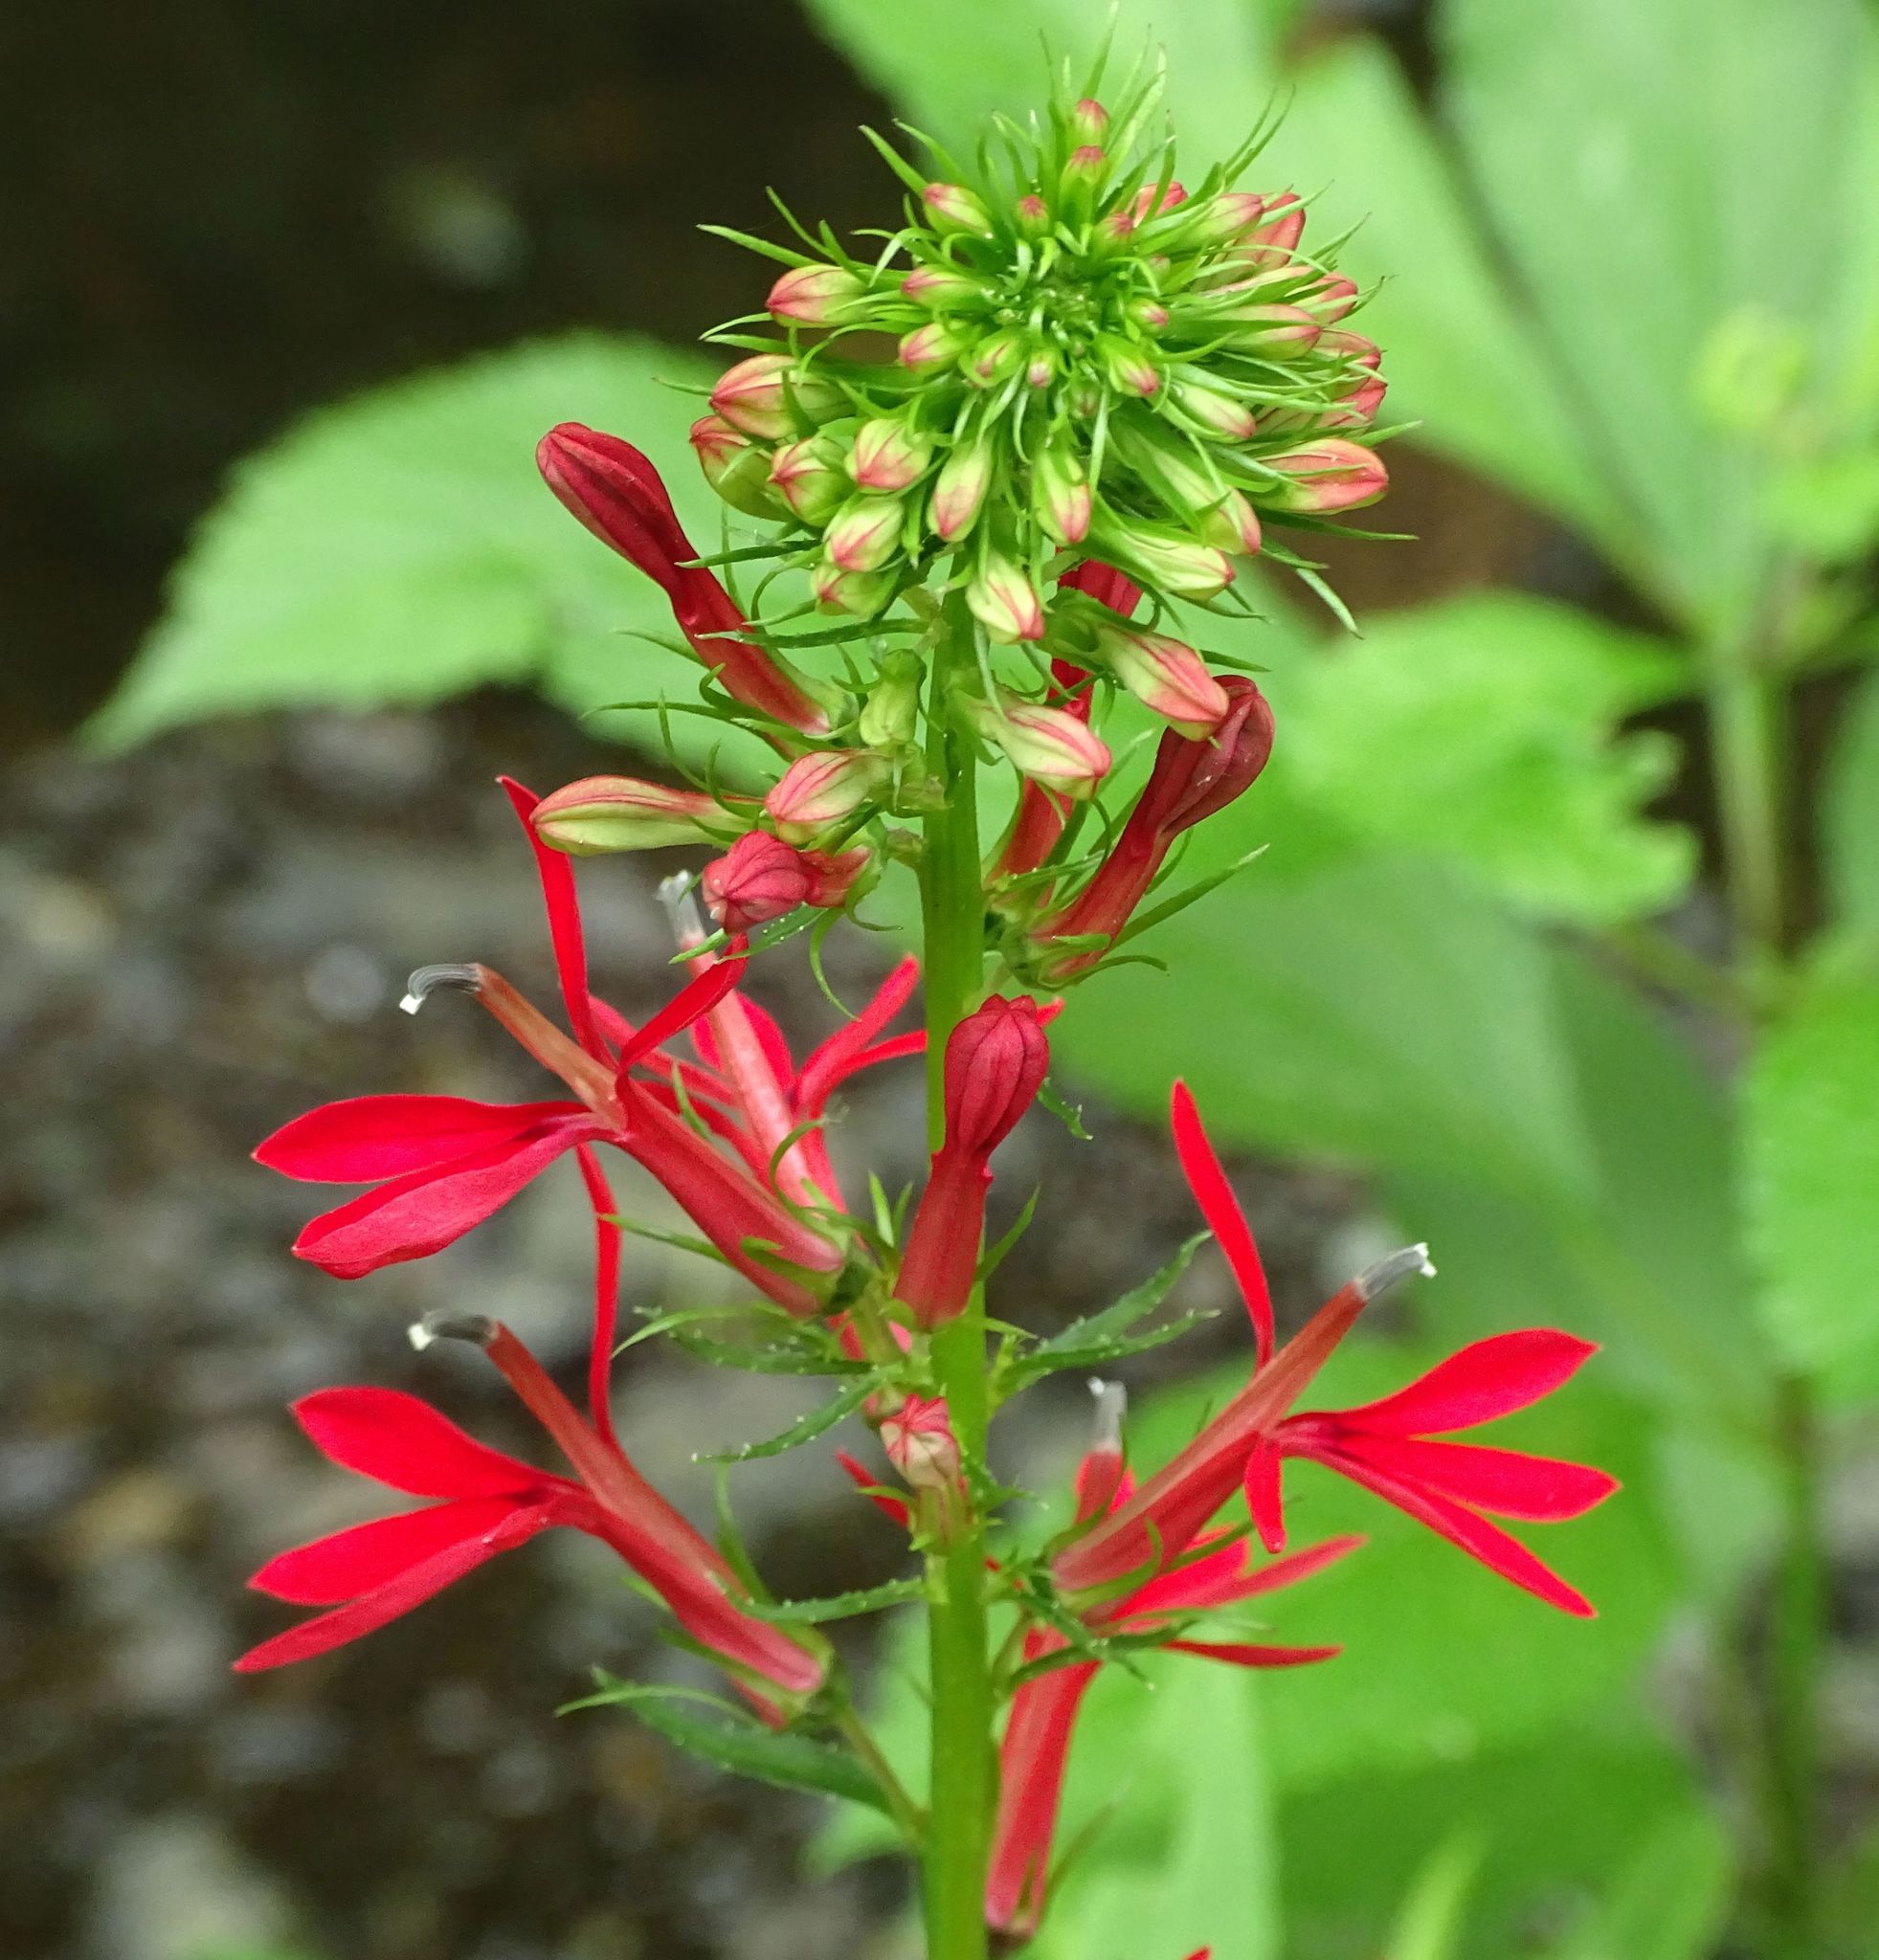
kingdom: Plantae
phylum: Tracheophyta
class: Magnoliopsida
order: Asterales
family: Campanulaceae
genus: Lobelia
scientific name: Lobelia cardinalis
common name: Cardinal flower
